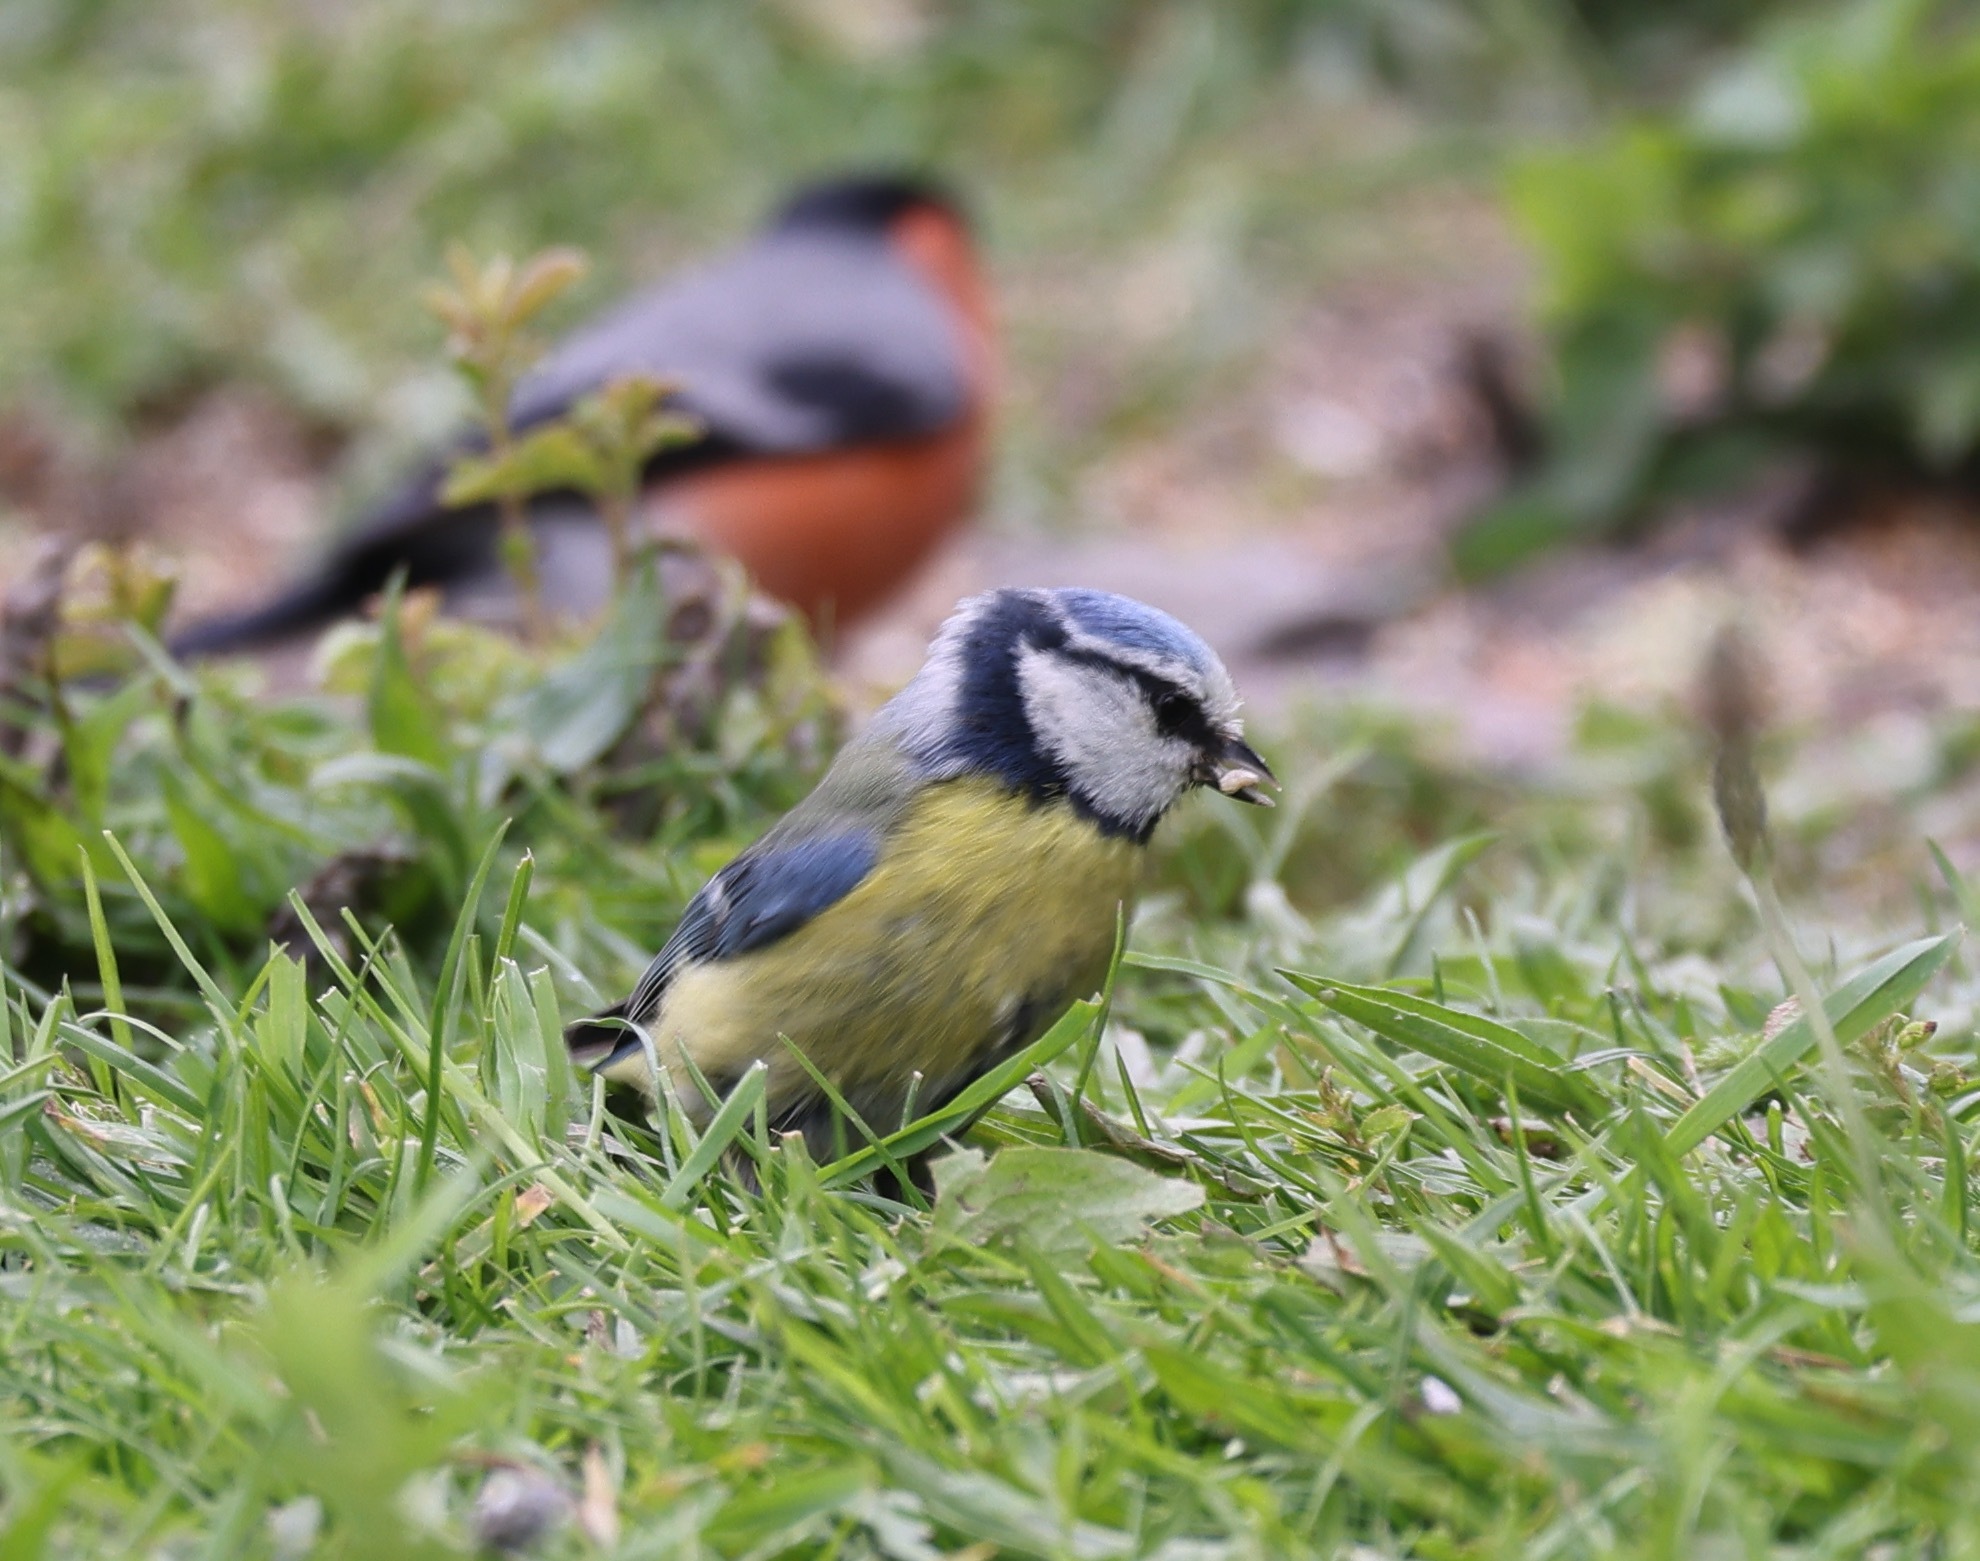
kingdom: Animalia
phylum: Chordata
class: Aves
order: Passeriformes
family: Paridae
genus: Cyanistes
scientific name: Cyanistes caeruleus
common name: Eurasian blue tit
